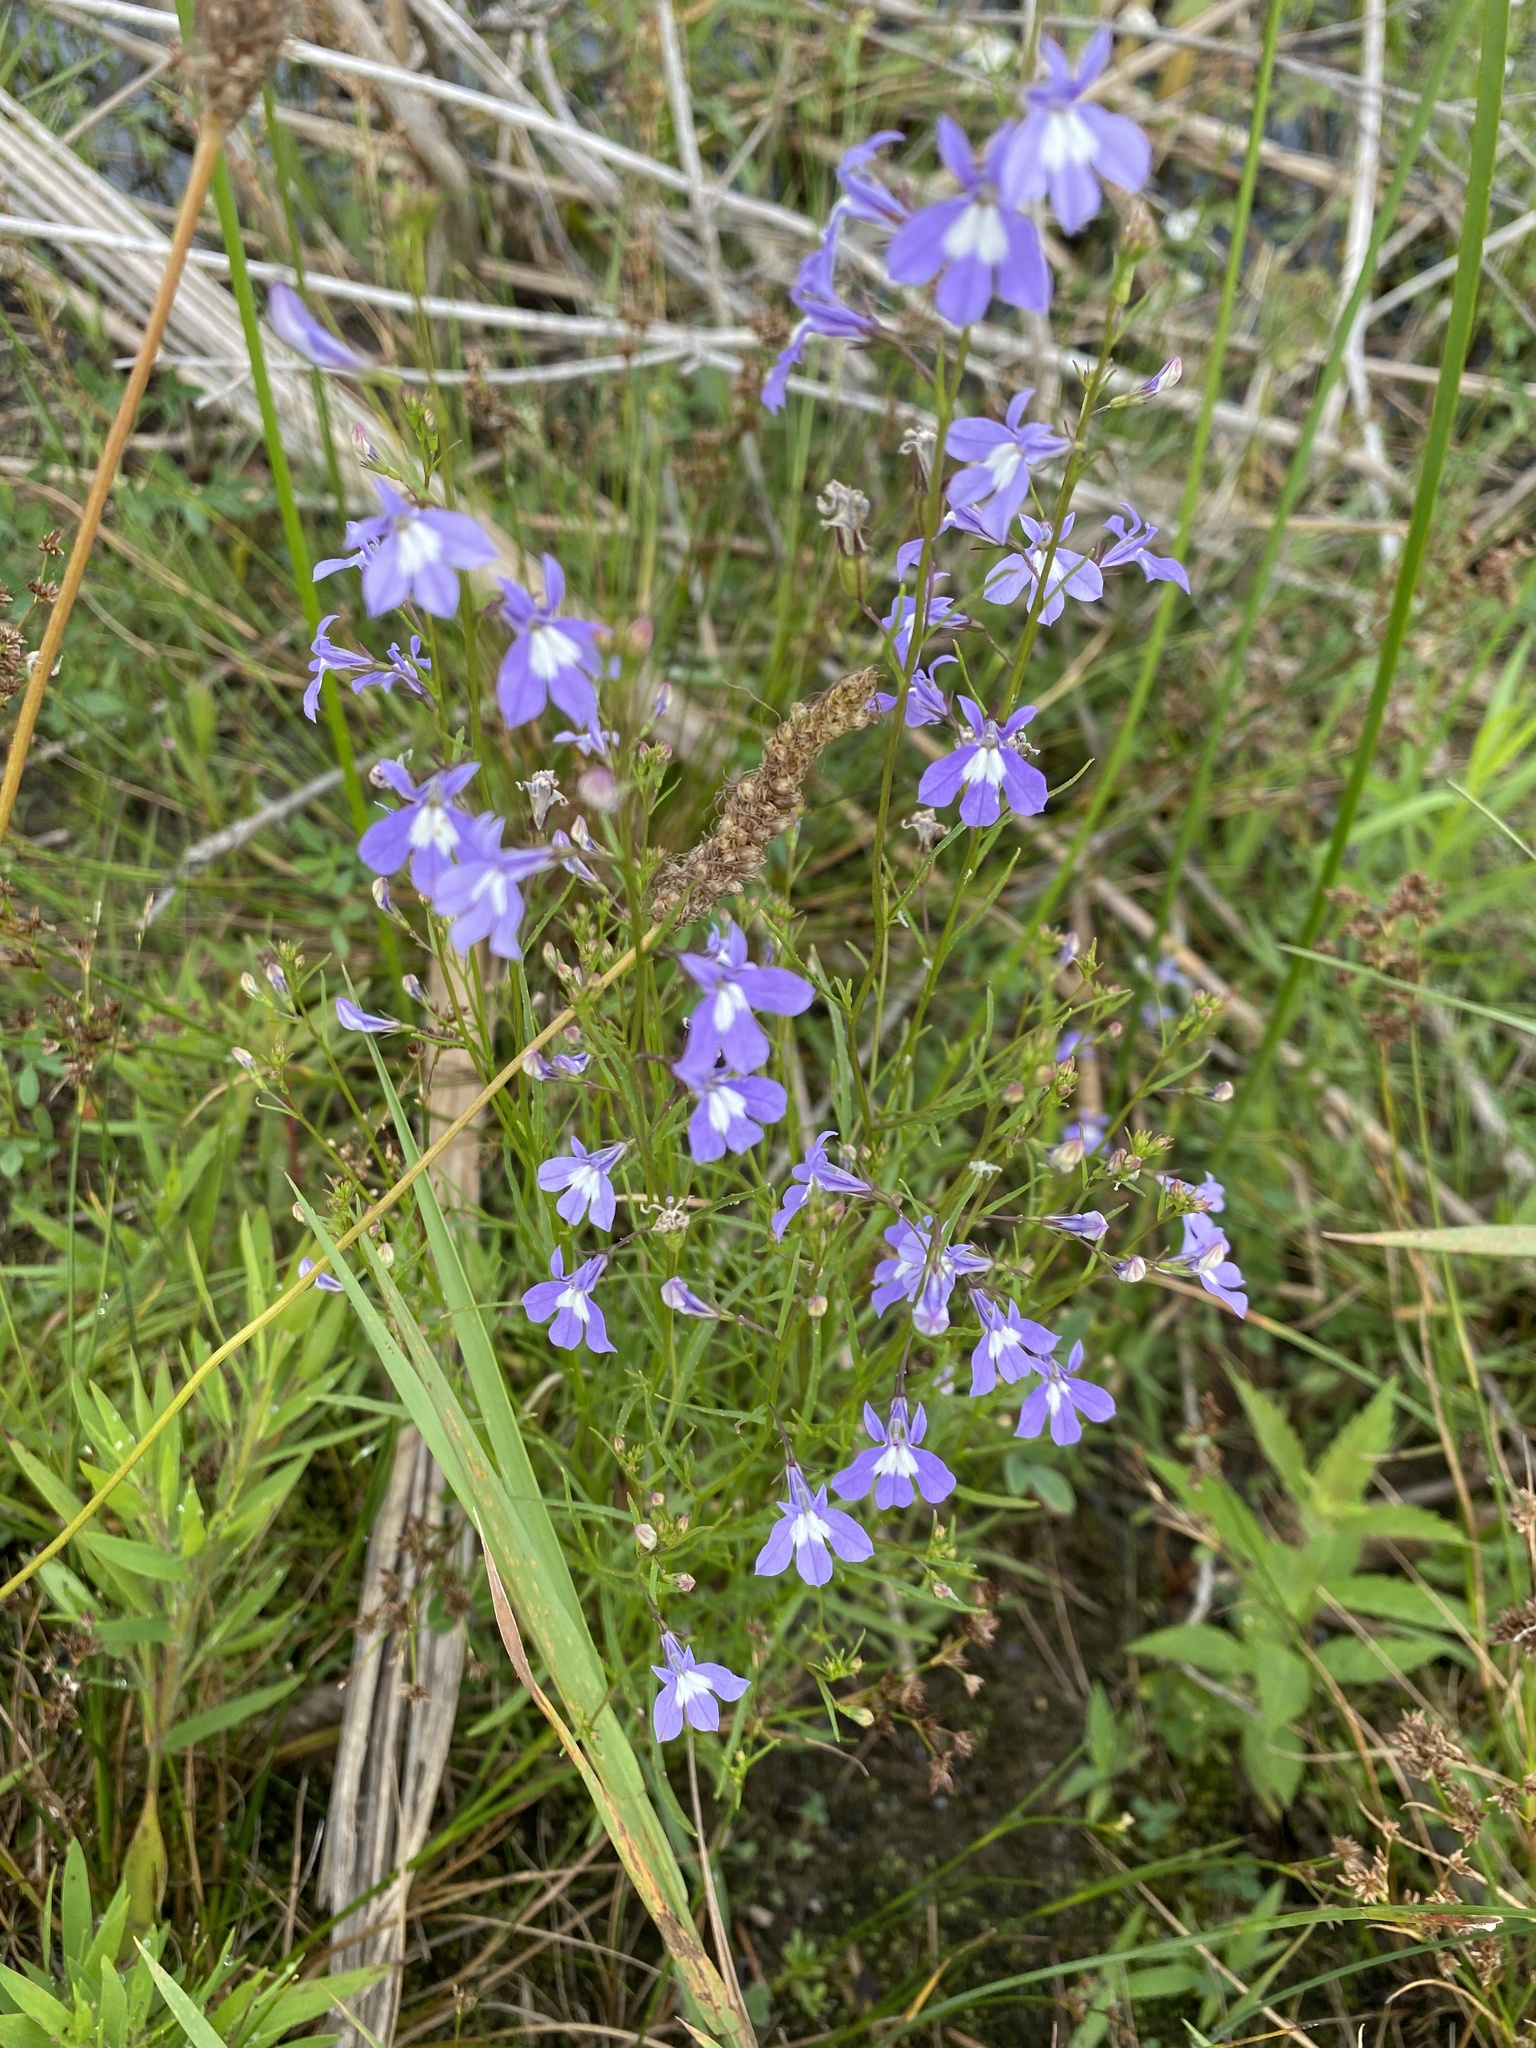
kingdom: Plantae
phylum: Tracheophyta
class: Magnoliopsida
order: Asterales
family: Campanulaceae
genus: Lobelia
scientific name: Lobelia kalmii
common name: Kalm's lobelia
